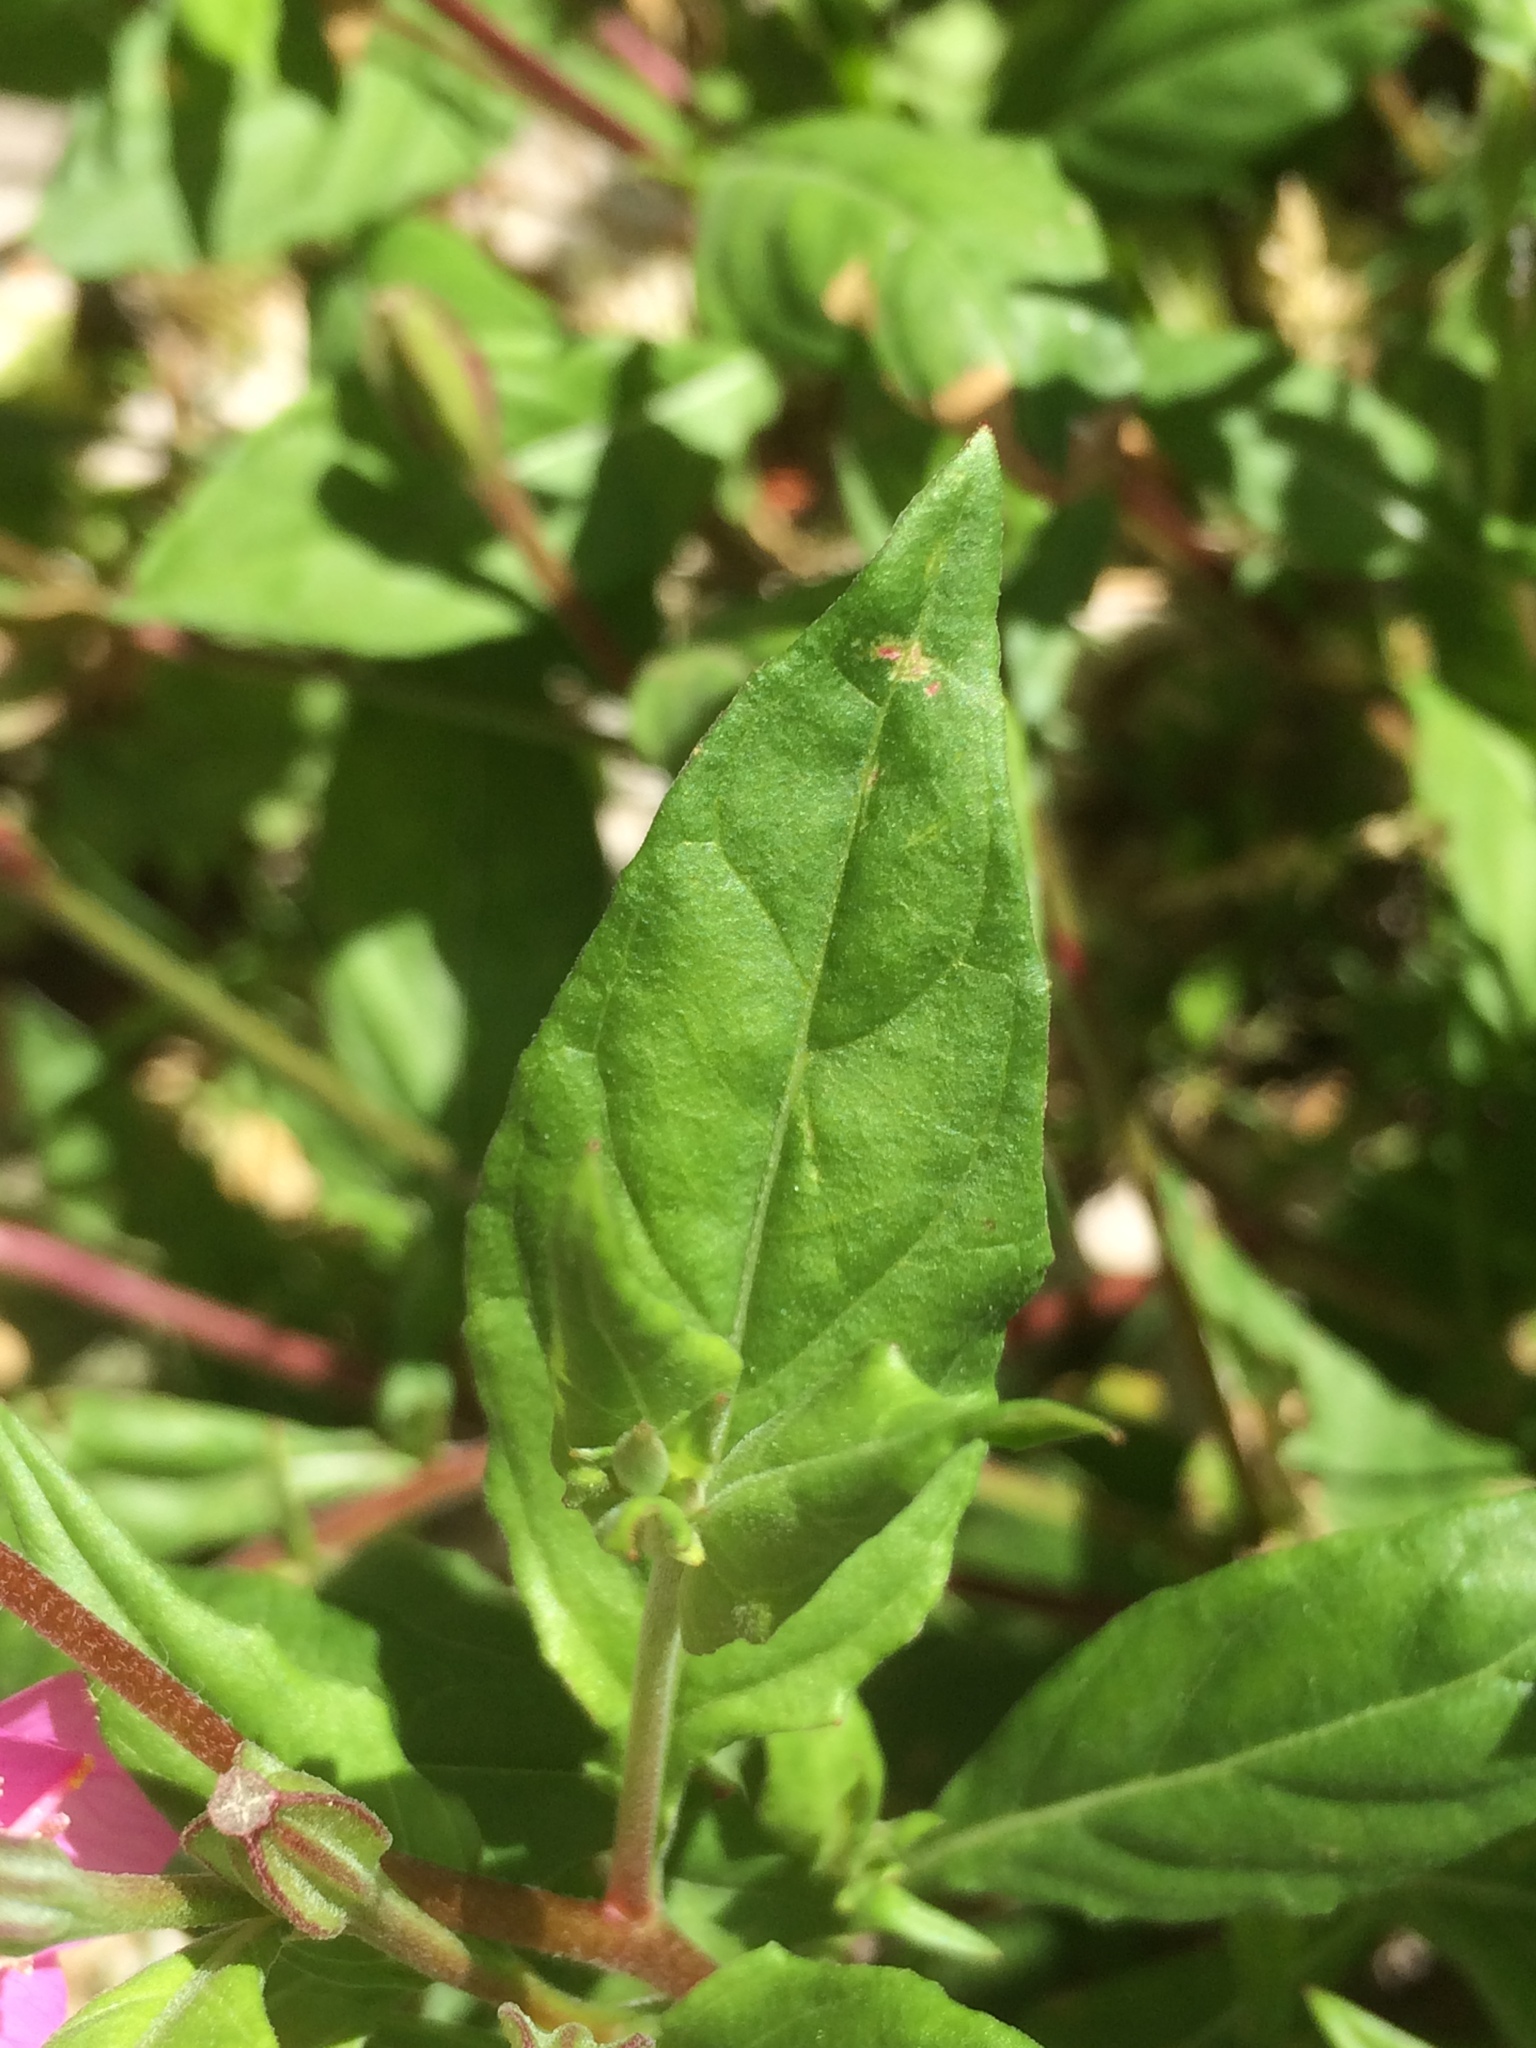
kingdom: Plantae
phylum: Tracheophyta
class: Magnoliopsida
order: Myrtales
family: Onagraceae
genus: Oenothera
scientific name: Oenothera rosea
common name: Rosy evening-primrose
